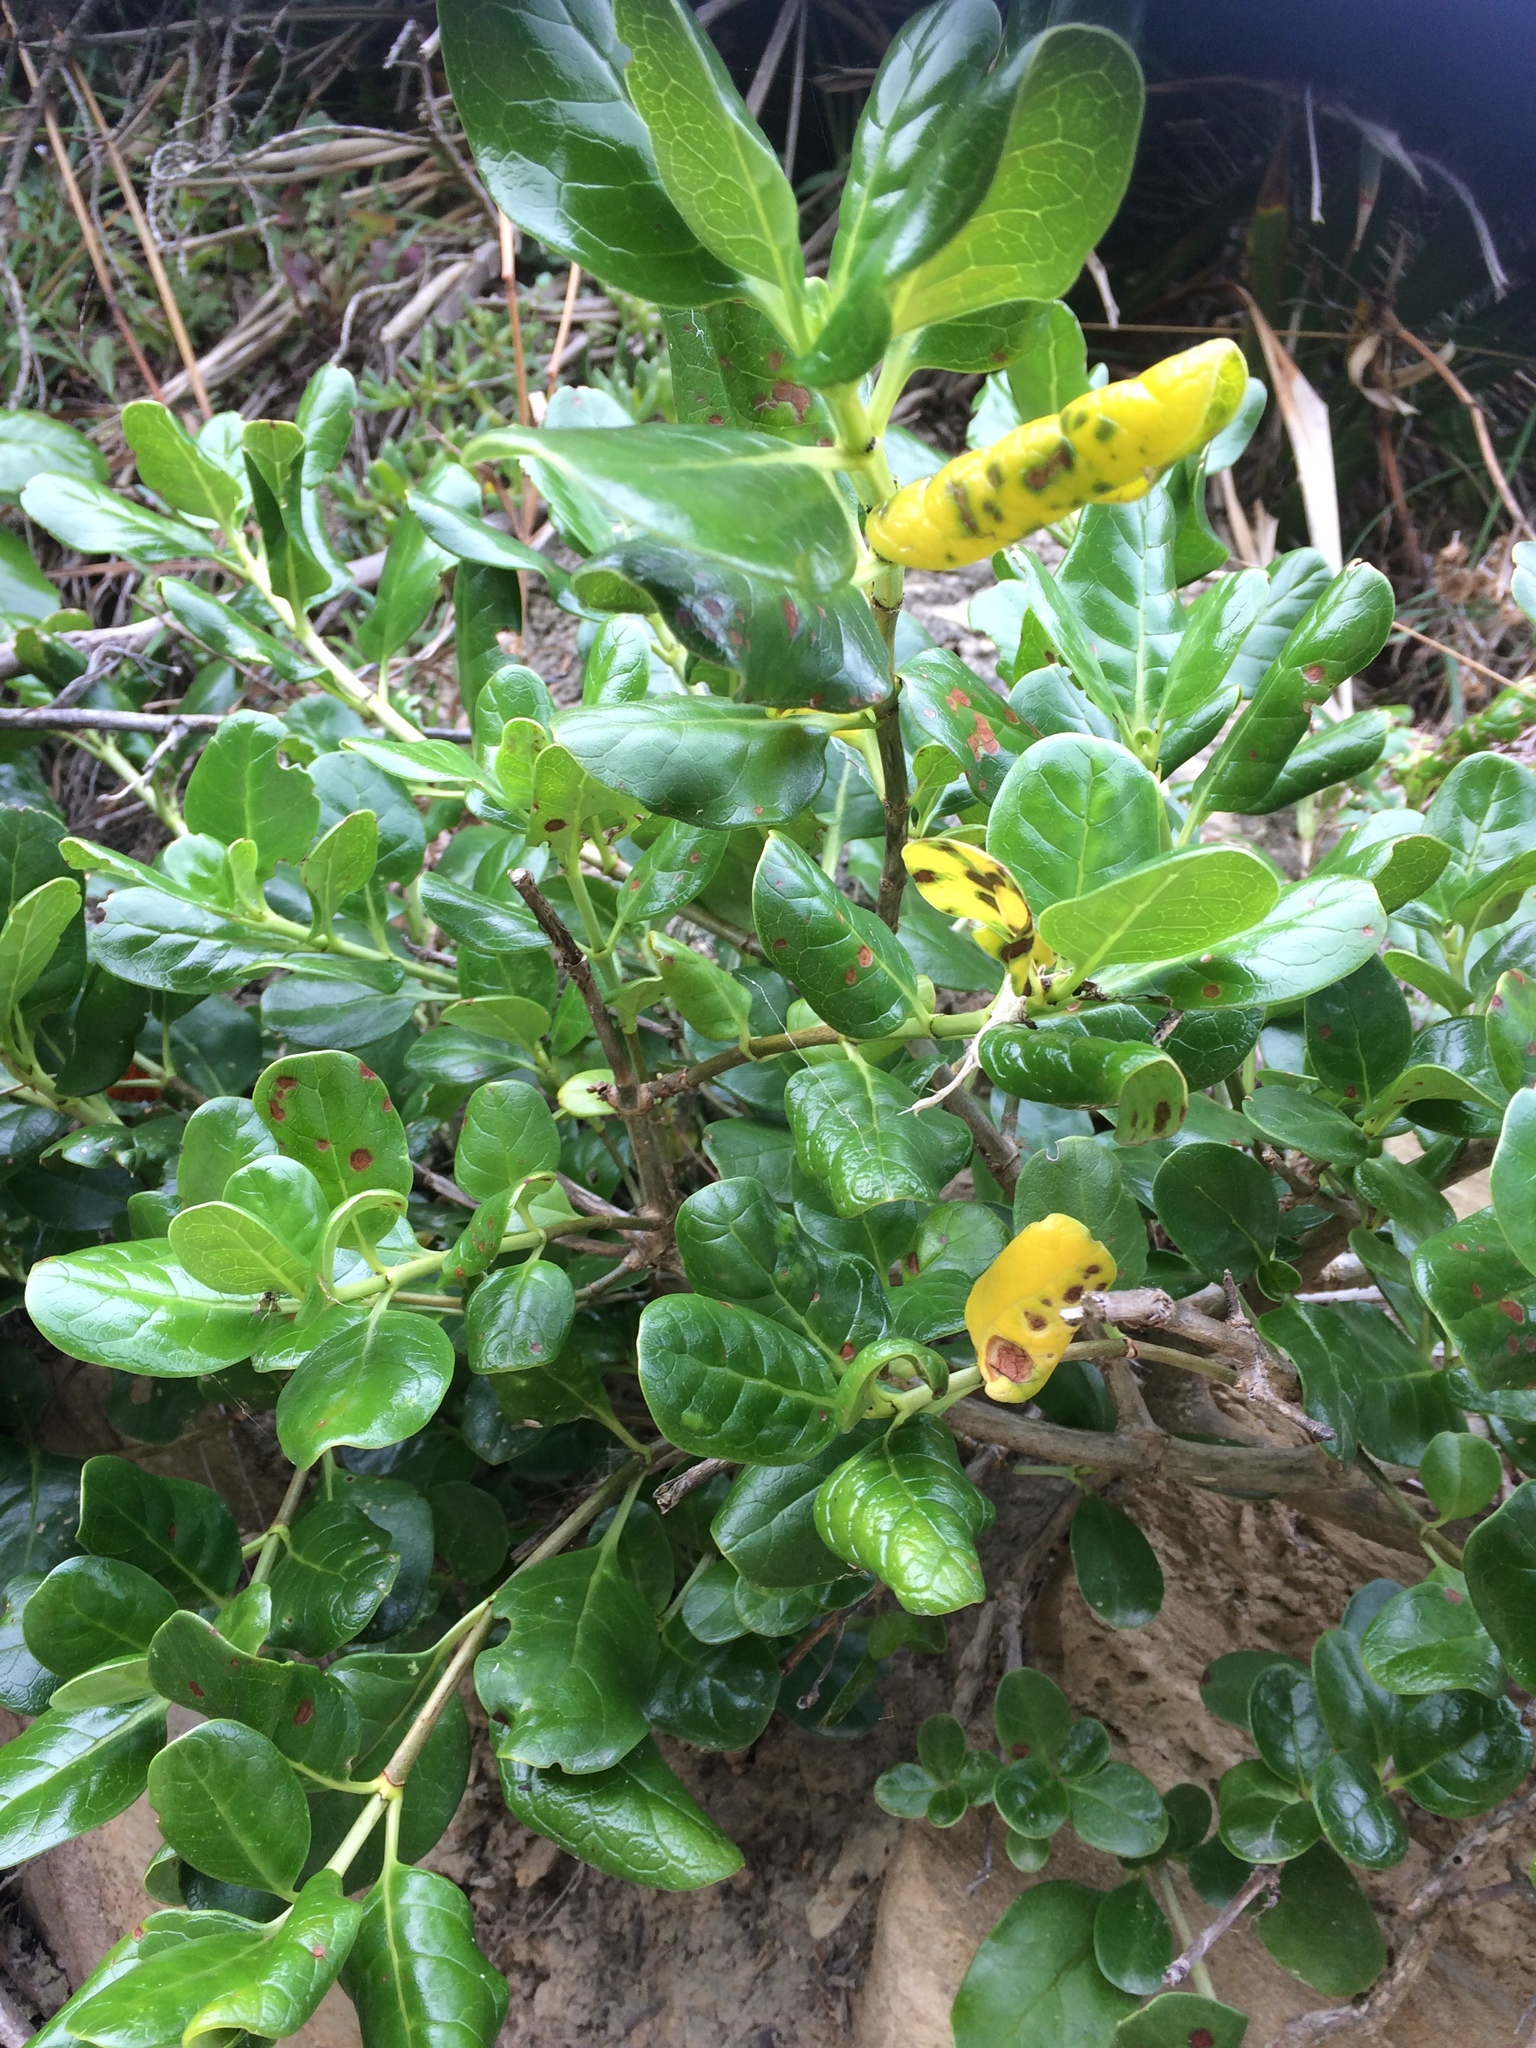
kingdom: Plantae
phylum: Tracheophyta
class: Magnoliopsida
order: Gentianales
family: Rubiaceae
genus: Coprosma
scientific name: Coprosma repens
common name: Tree bedstraw
